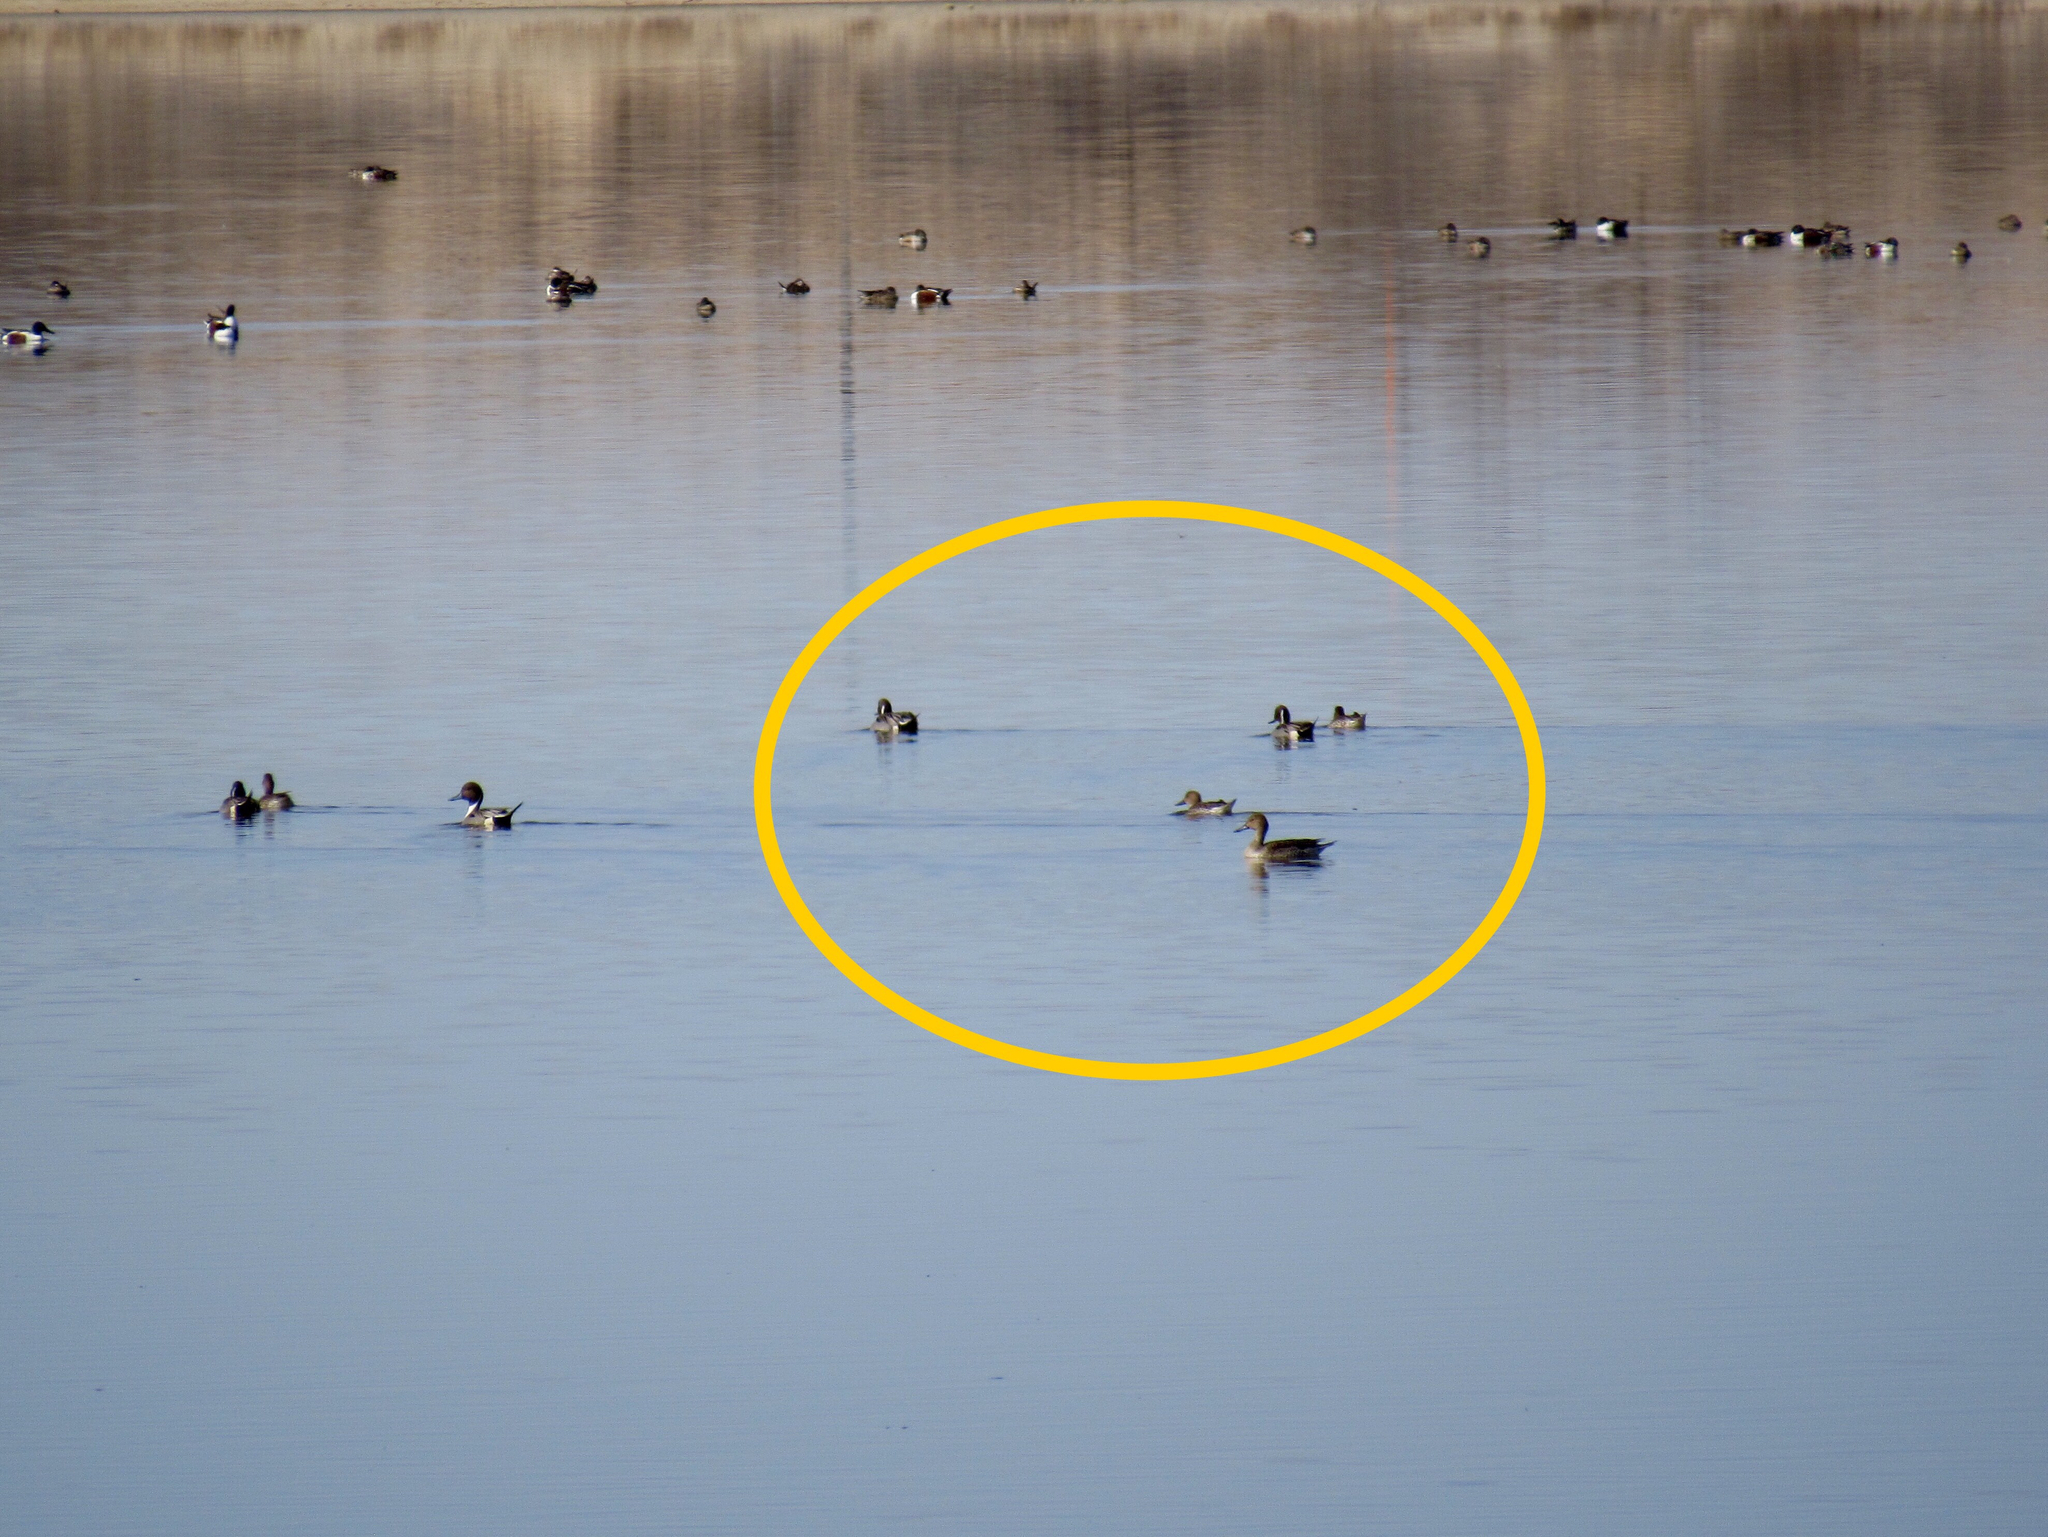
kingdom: Animalia
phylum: Chordata
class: Aves
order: Anseriformes
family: Anatidae
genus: Anas
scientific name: Anas acuta
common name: Northern pintail
